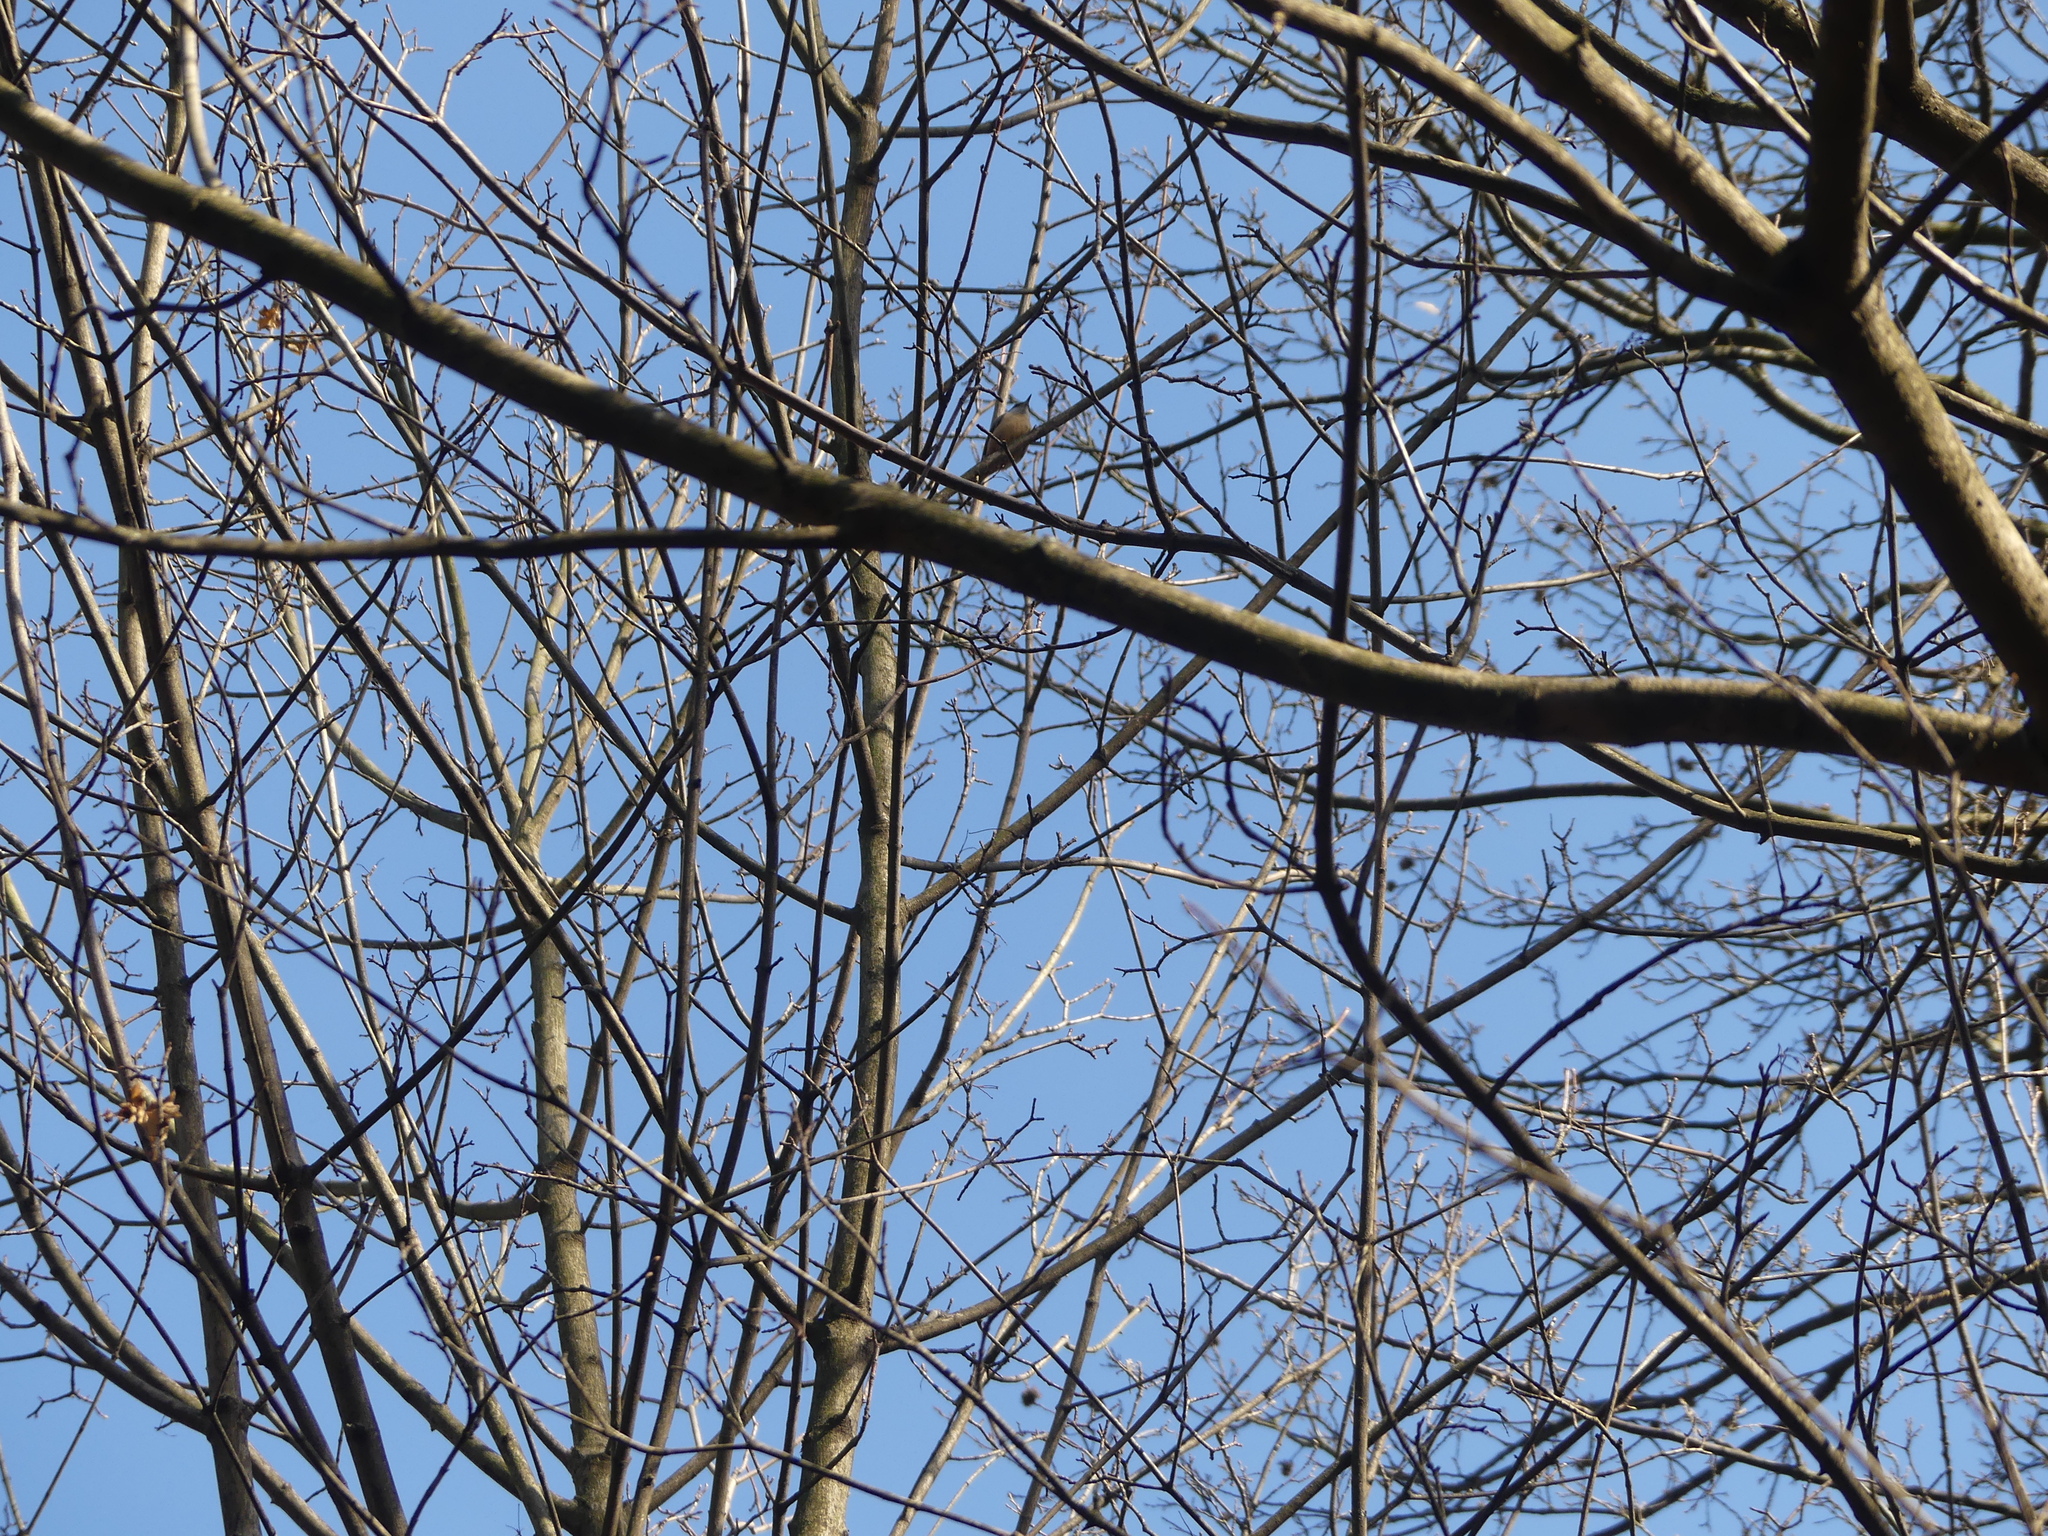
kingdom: Animalia
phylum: Chordata
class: Aves
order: Passeriformes
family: Sittidae
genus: Sitta
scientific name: Sitta europaea
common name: Eurasian nuthatch
